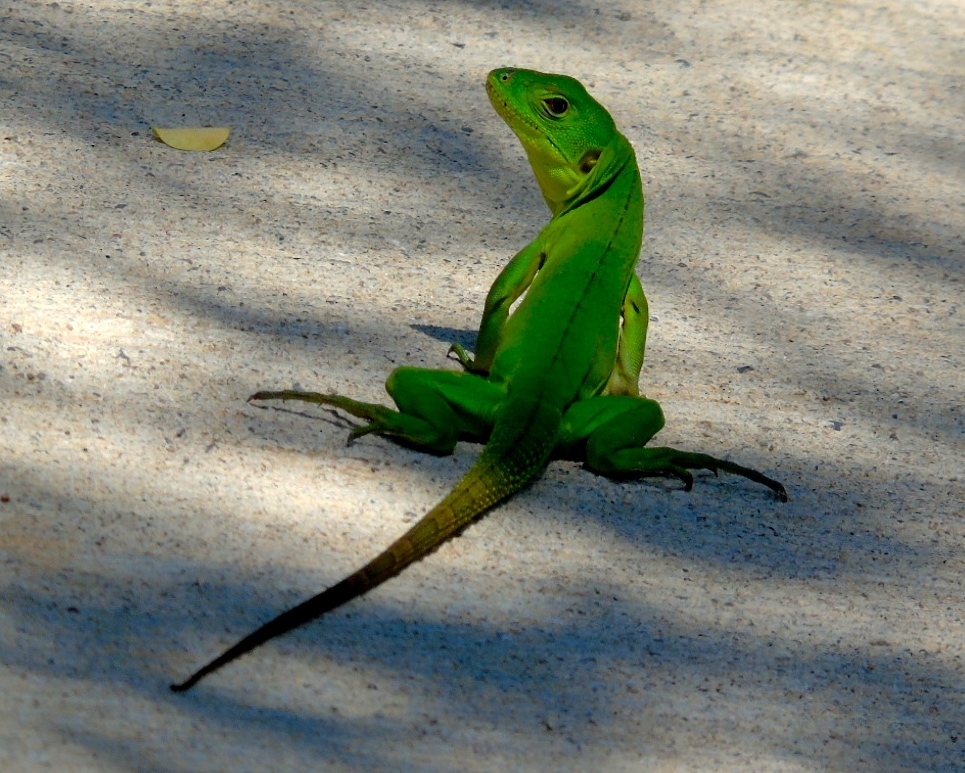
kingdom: Animalia
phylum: Chordata
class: Squamata
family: Iguanidae
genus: Ctenosaura
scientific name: Ctenosaura pectinata
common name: Guerreran spiny-tailed iguana
